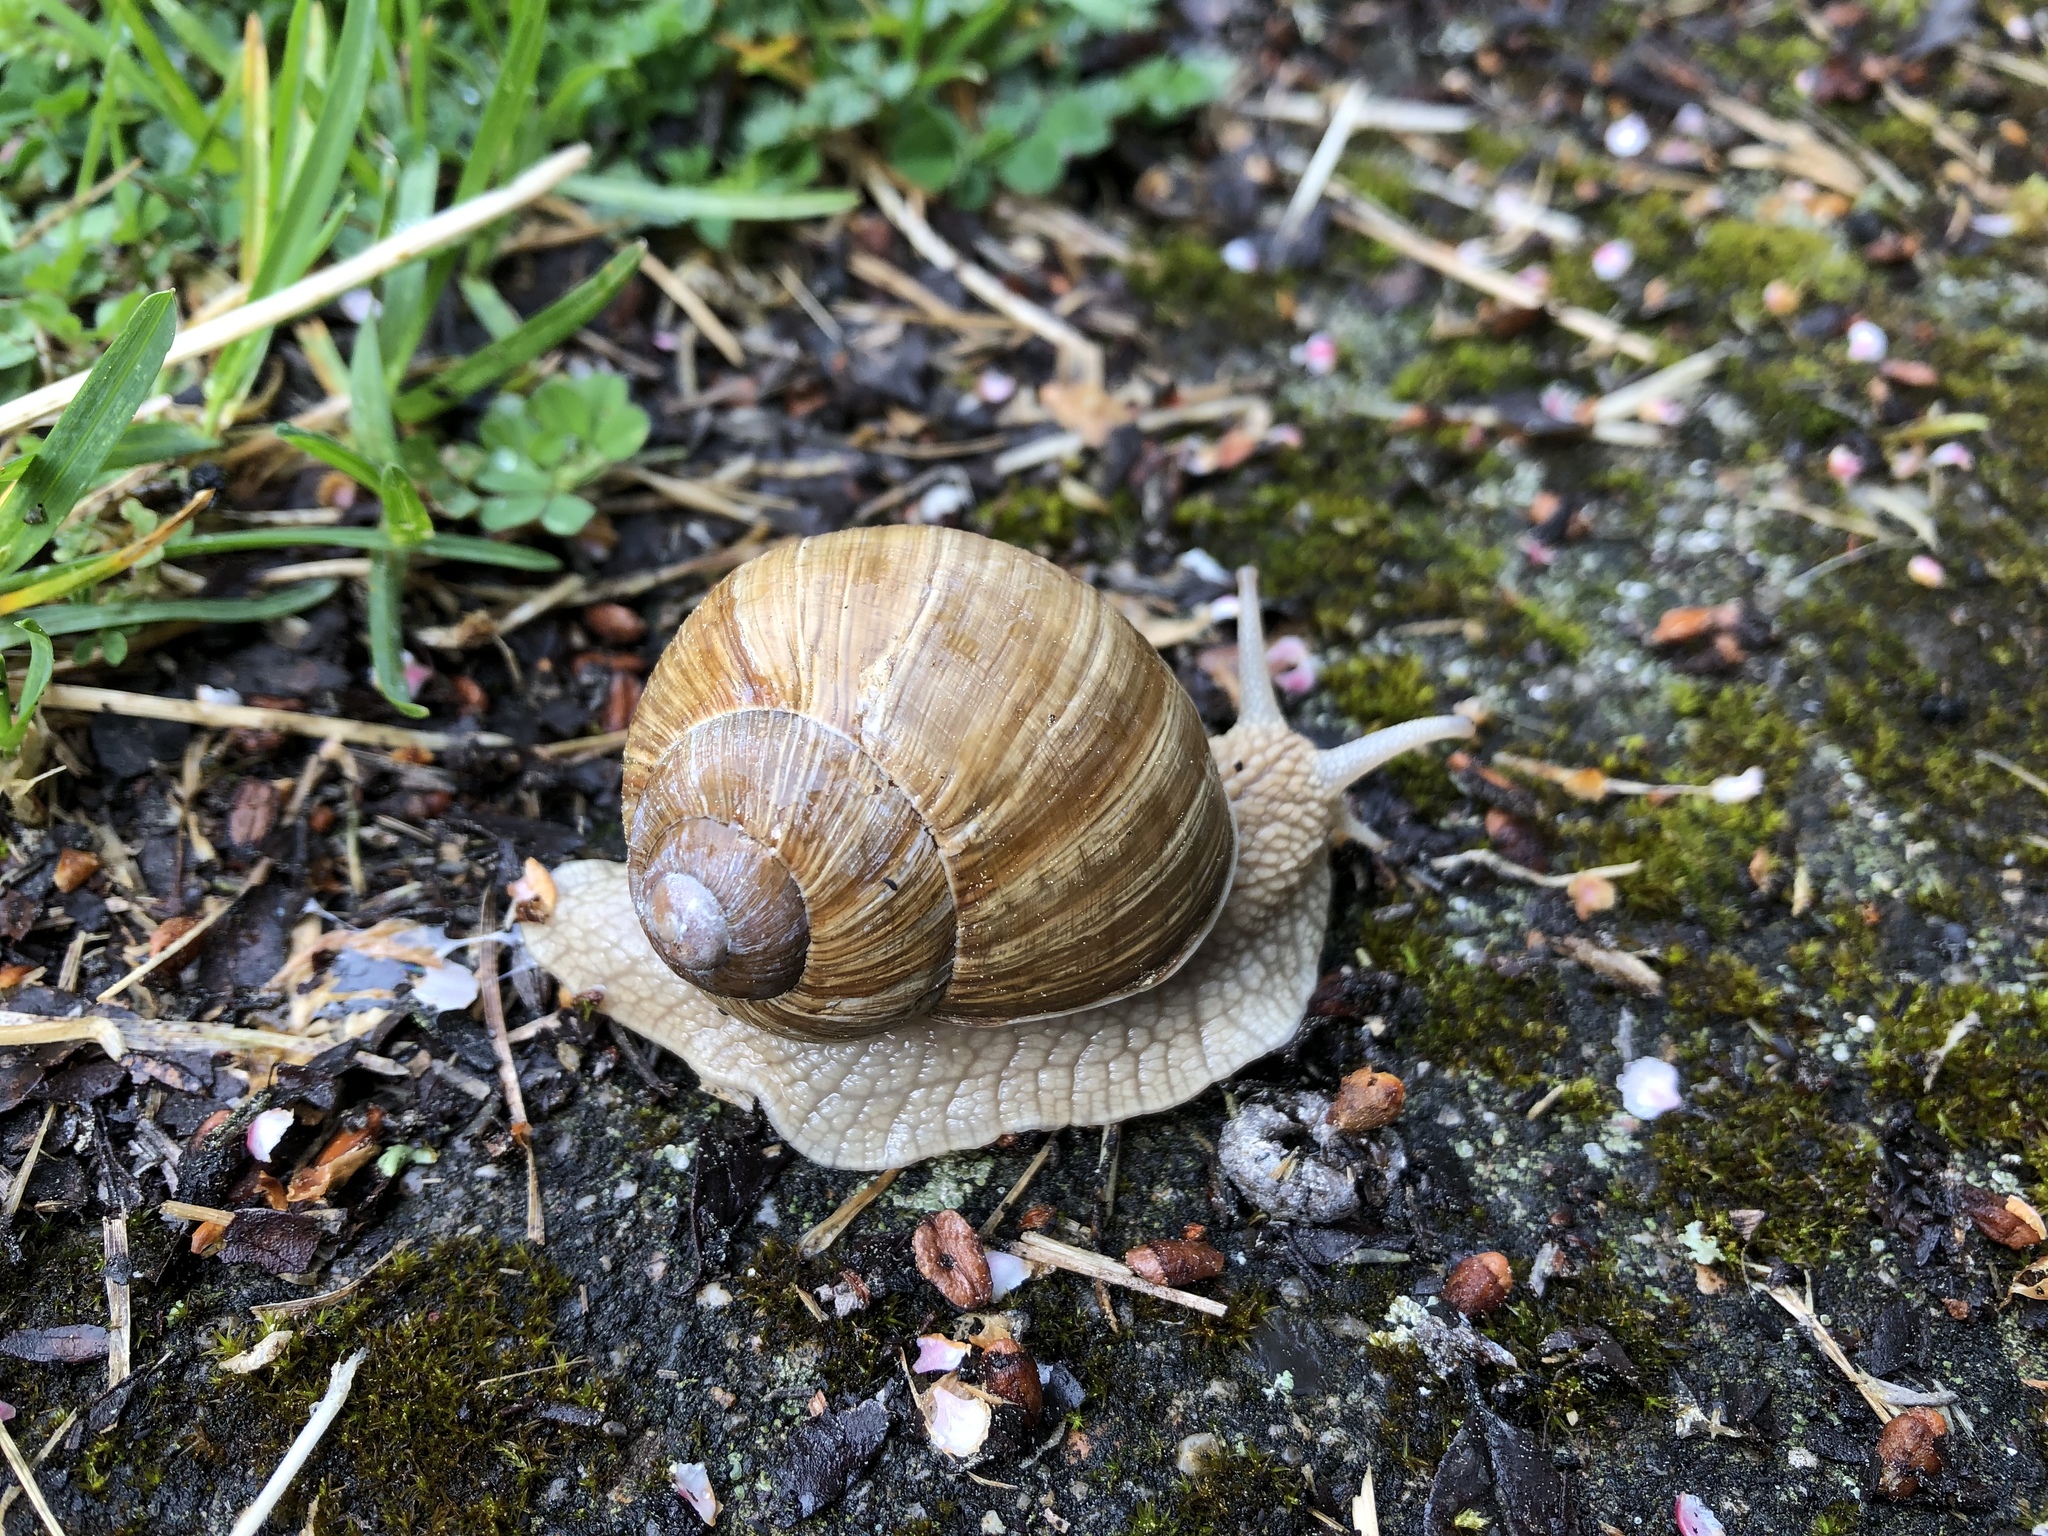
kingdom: Animalia
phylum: Mollusca
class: Gastropoda
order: Stylommatophora
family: Helicidae
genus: Helix
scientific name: Helix pomatia
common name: Roman snail
